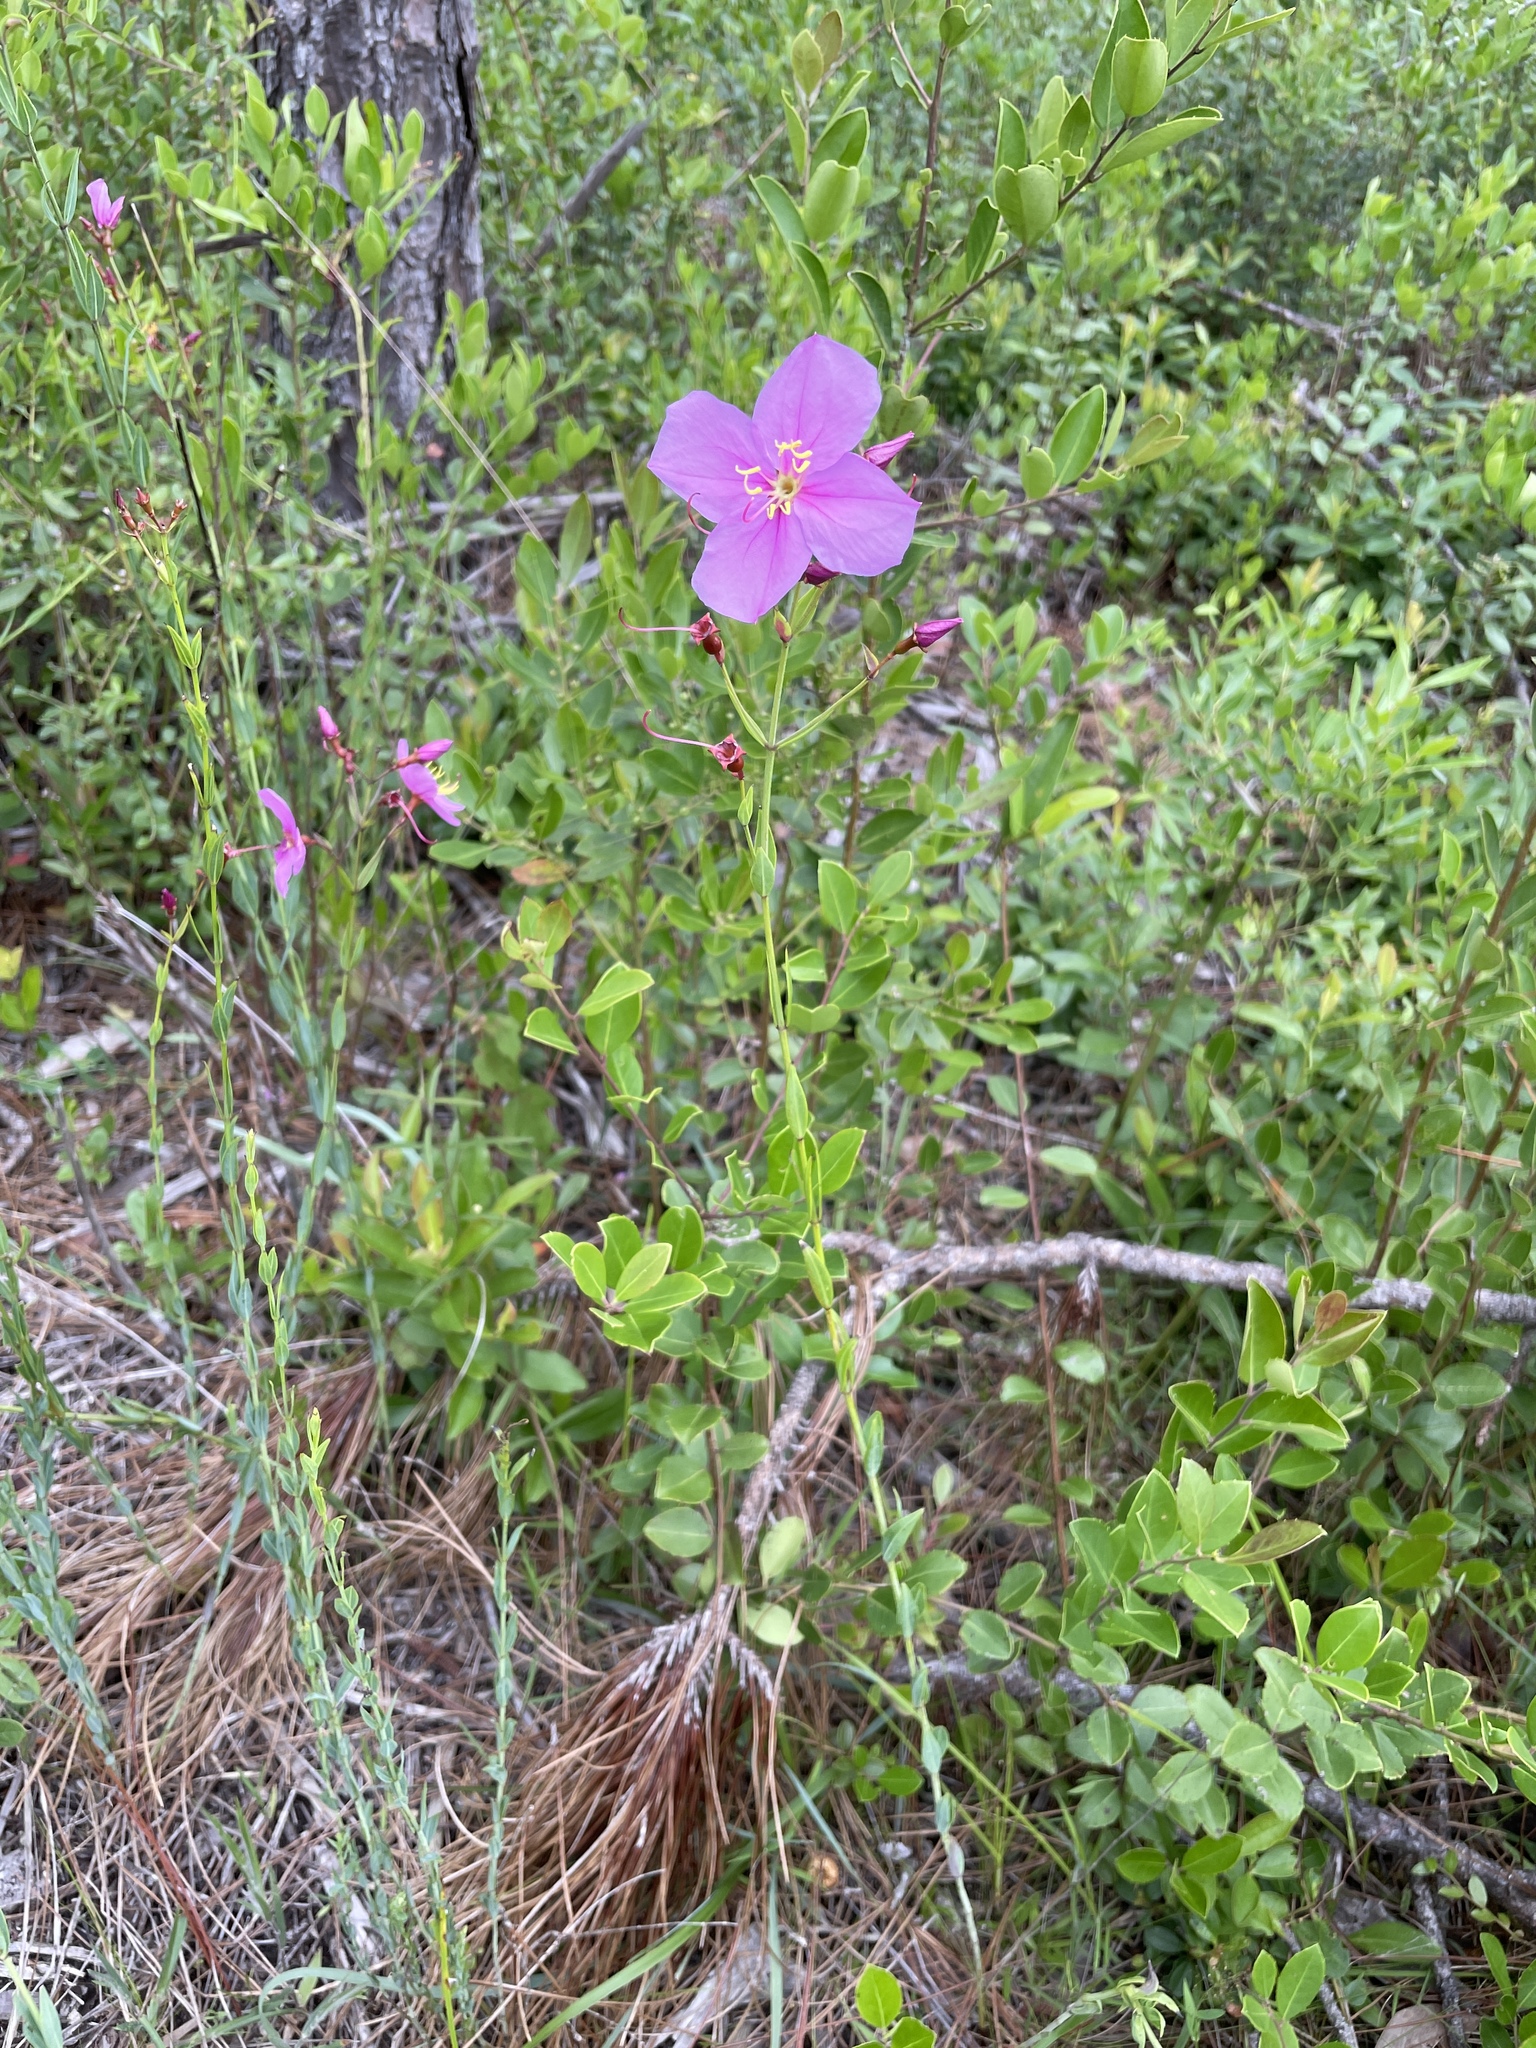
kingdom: Plantae
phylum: Tracheophyta
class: Magnoliopsida
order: Myrtales
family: Melastomataceae
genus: Rhexia
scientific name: Rhexia alifanus
